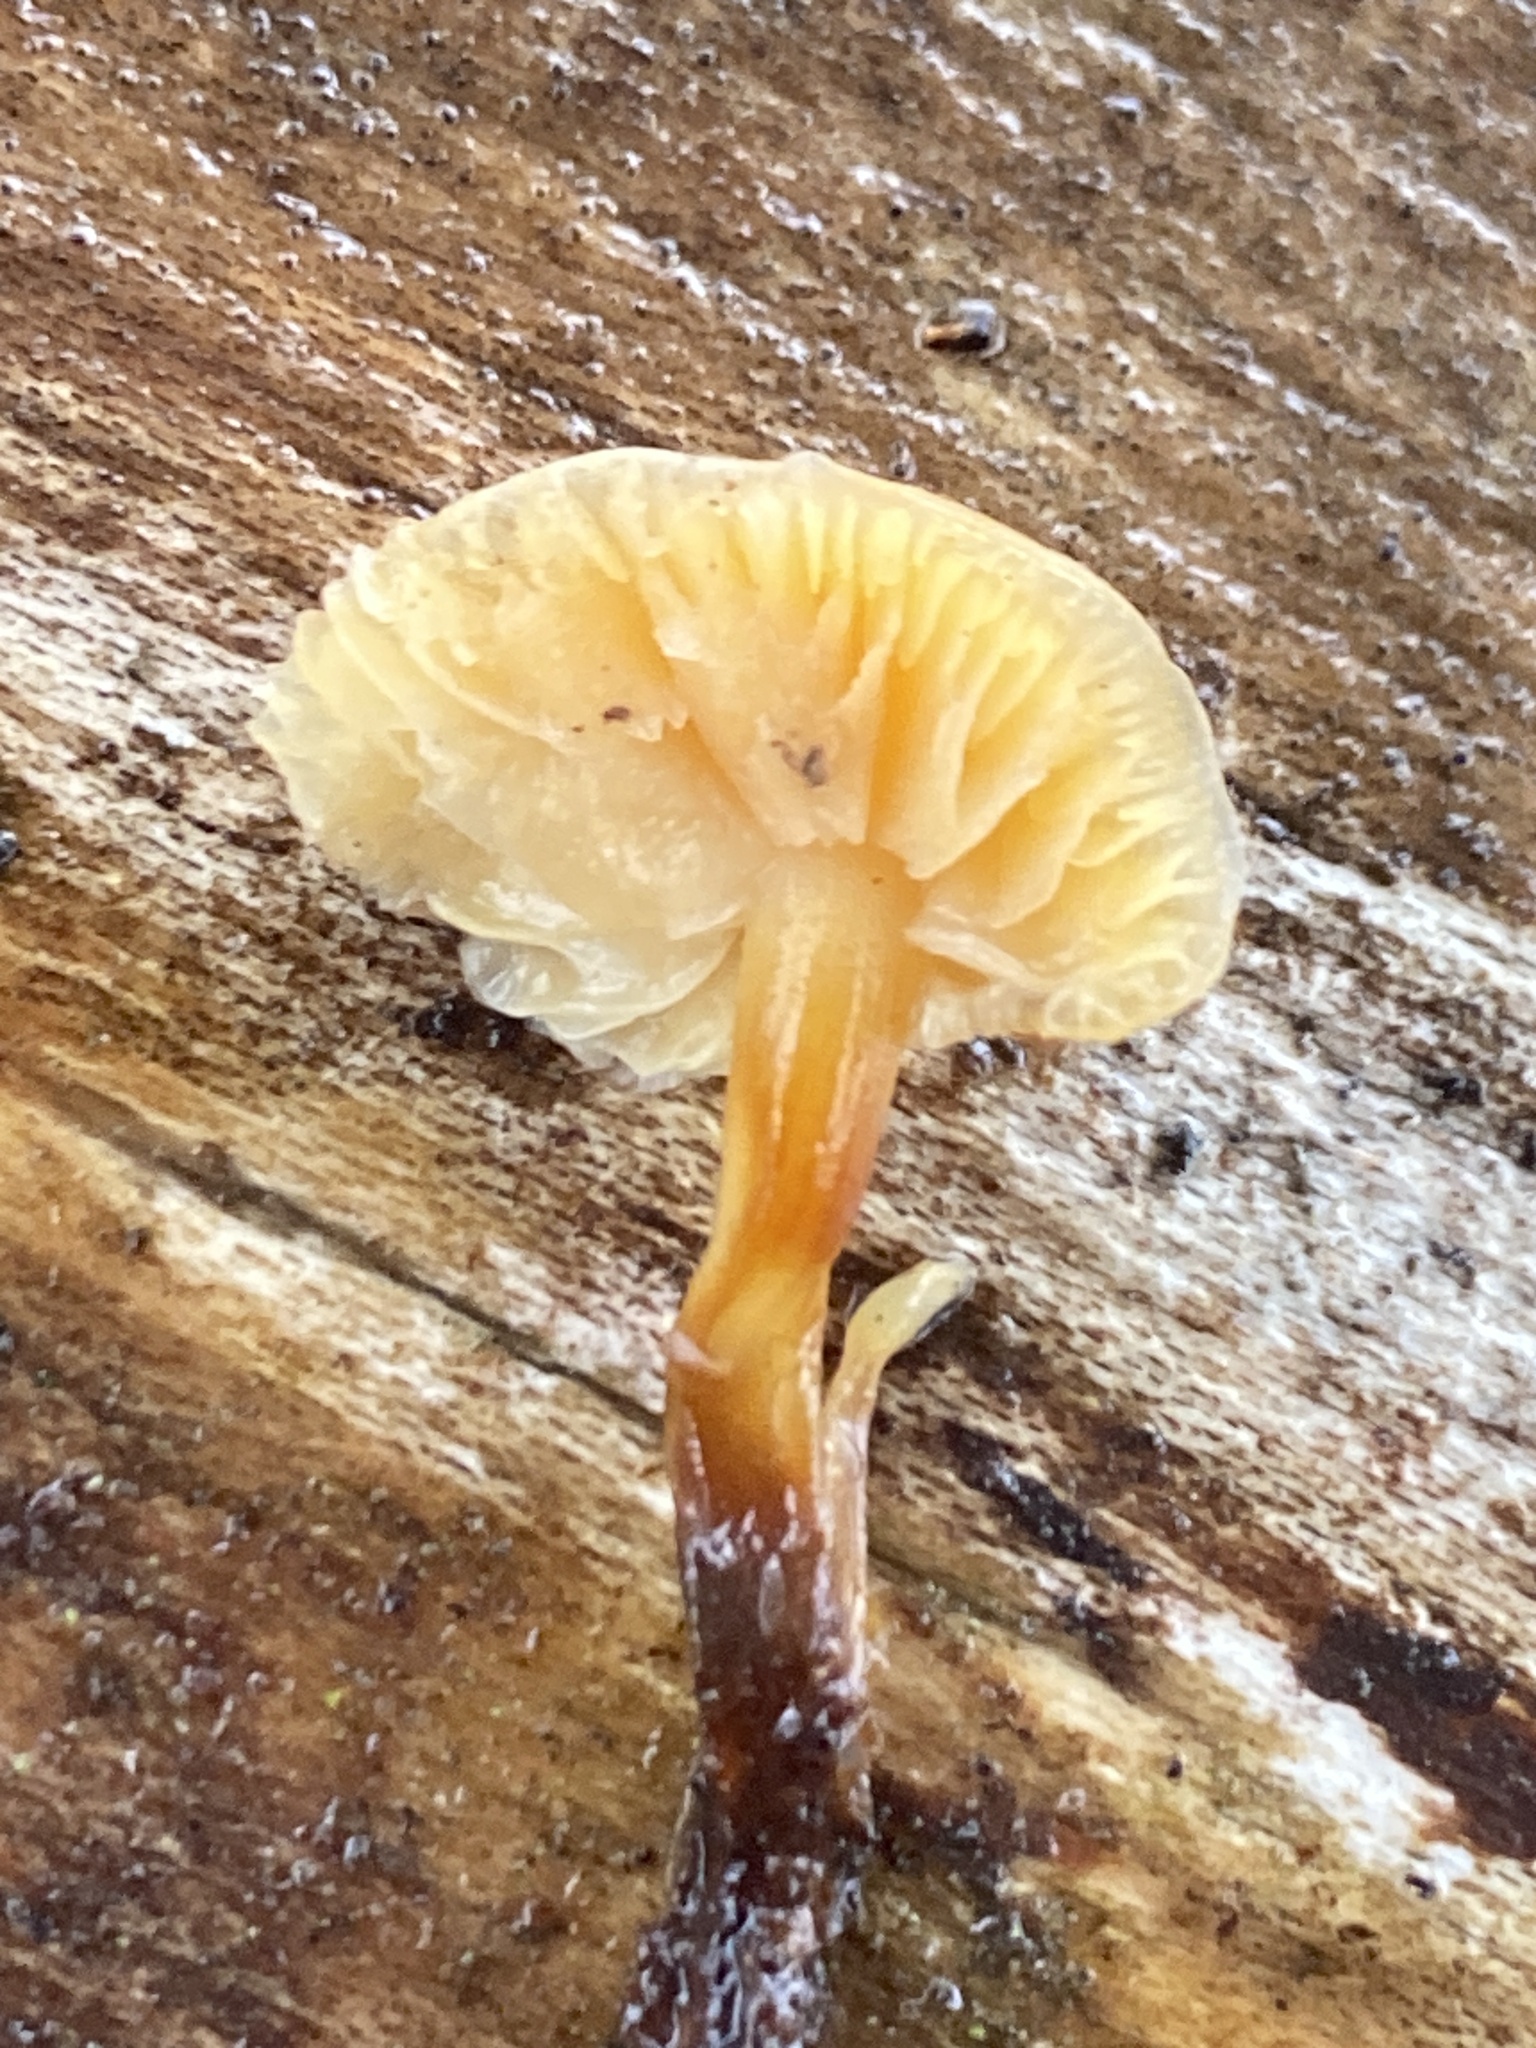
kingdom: Fungi
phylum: Basidiomycota
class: Agaricomycetes
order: Agaricales
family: Physalacriaceae
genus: Flammulina
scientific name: Flammulina velutipes
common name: Velvet shank
